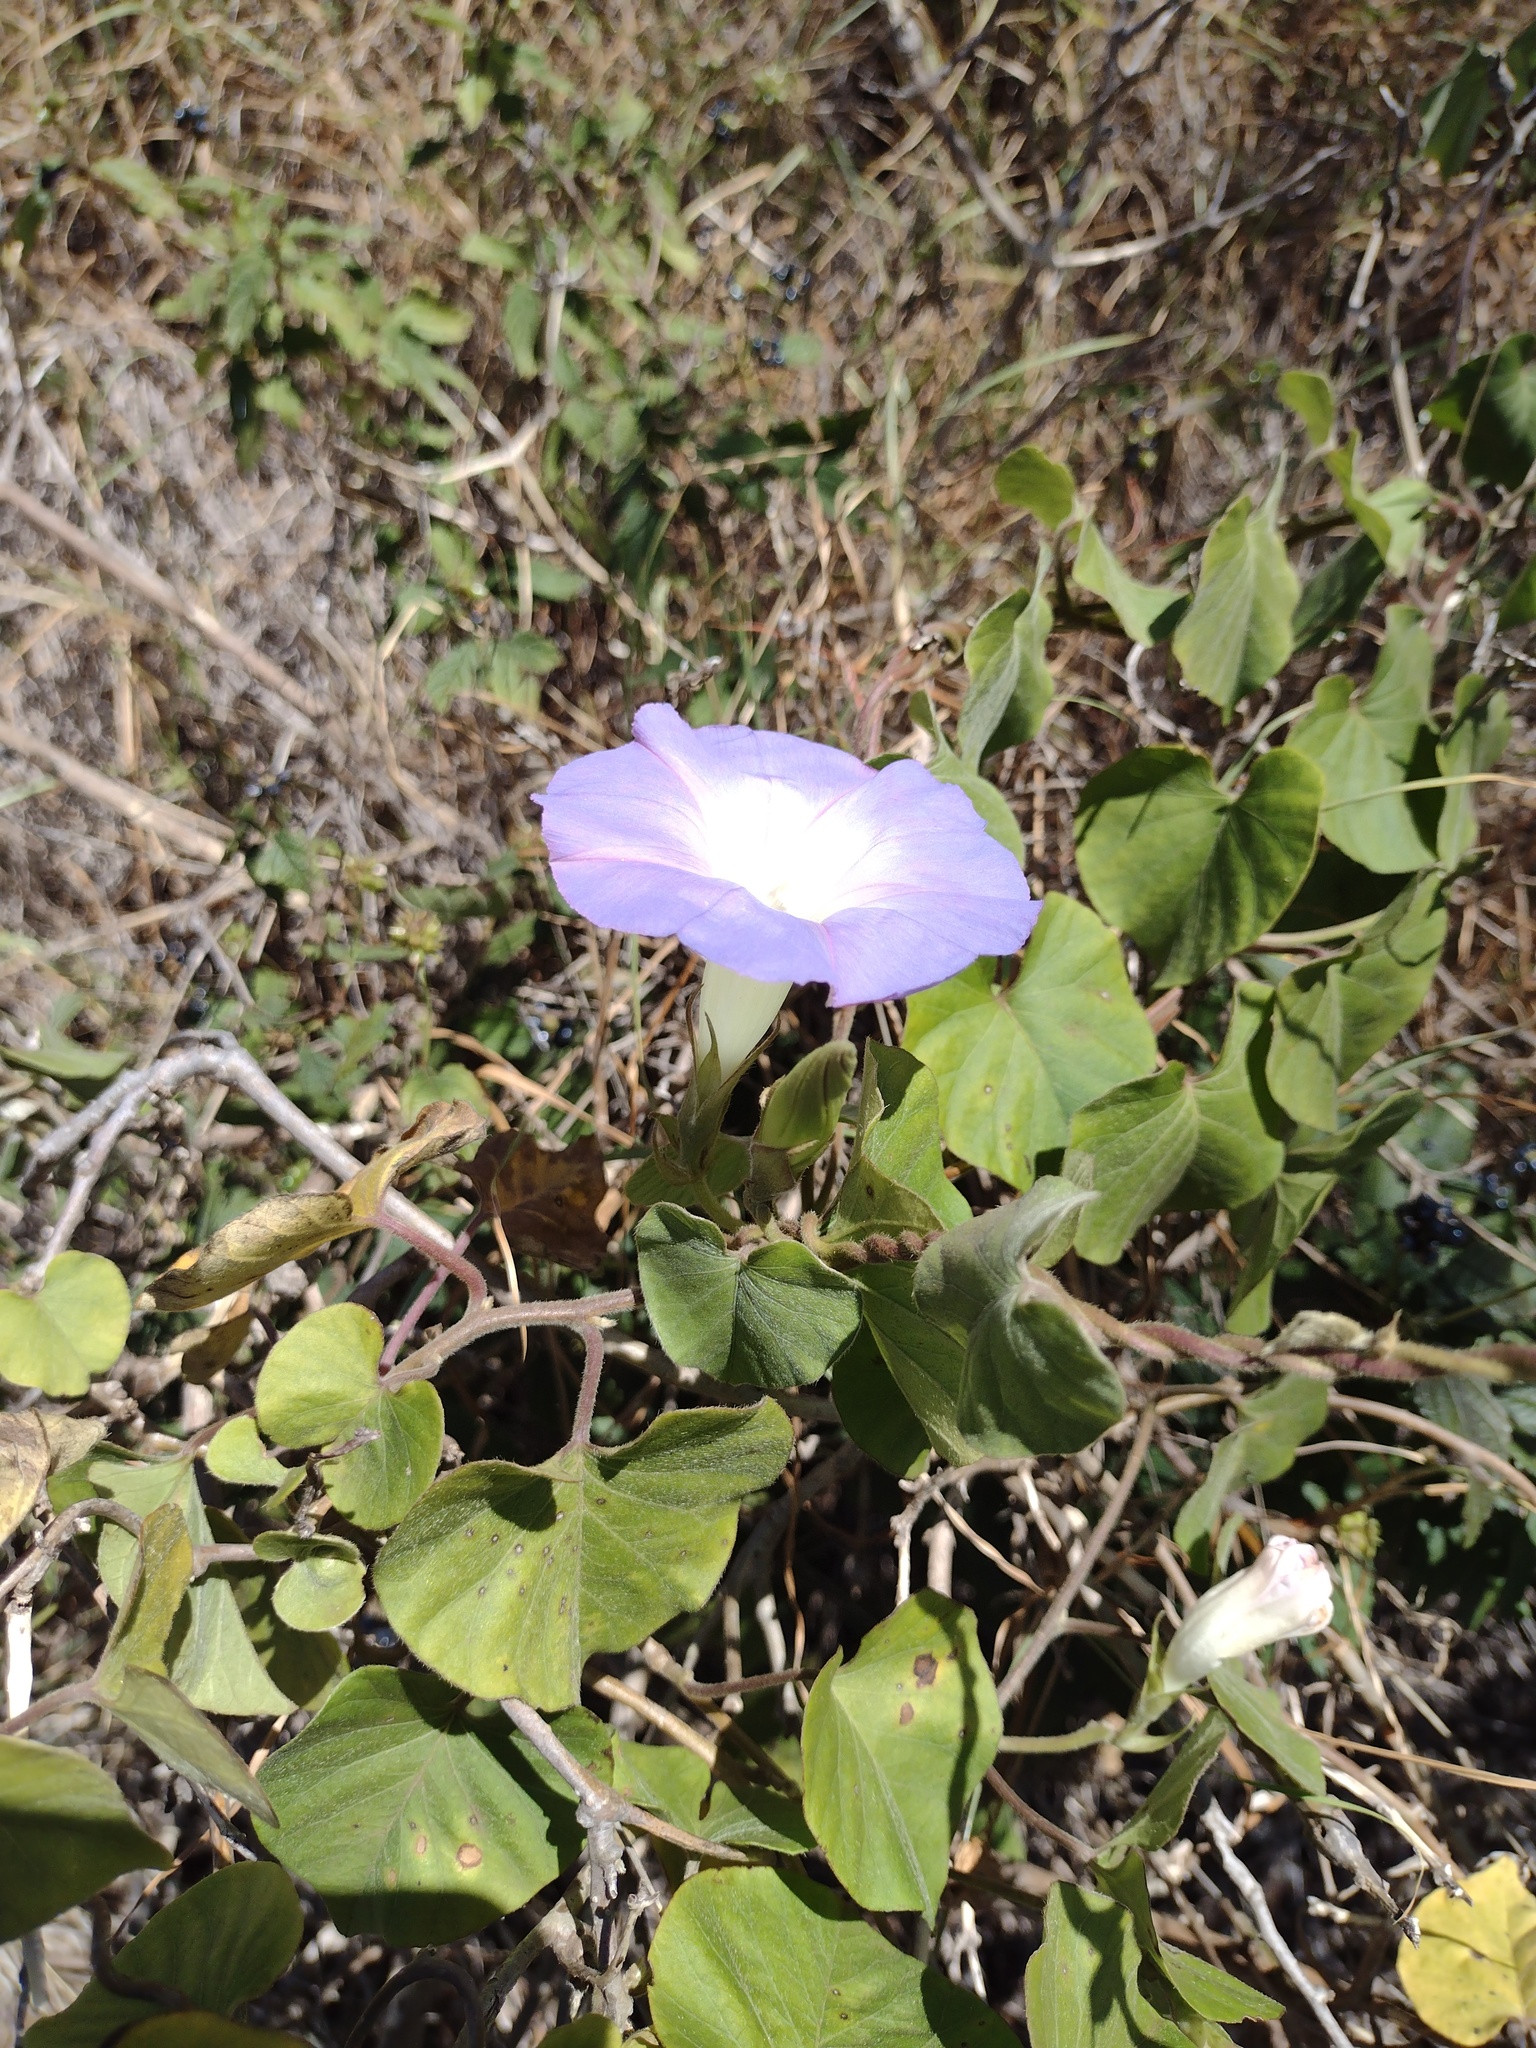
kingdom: Plantae
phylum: Tracheophyta
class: Magnoliopsida
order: Solanales
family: Convolvulaceae
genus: Ipomoea
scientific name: Ipomoea indica
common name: Blue dawnflower
